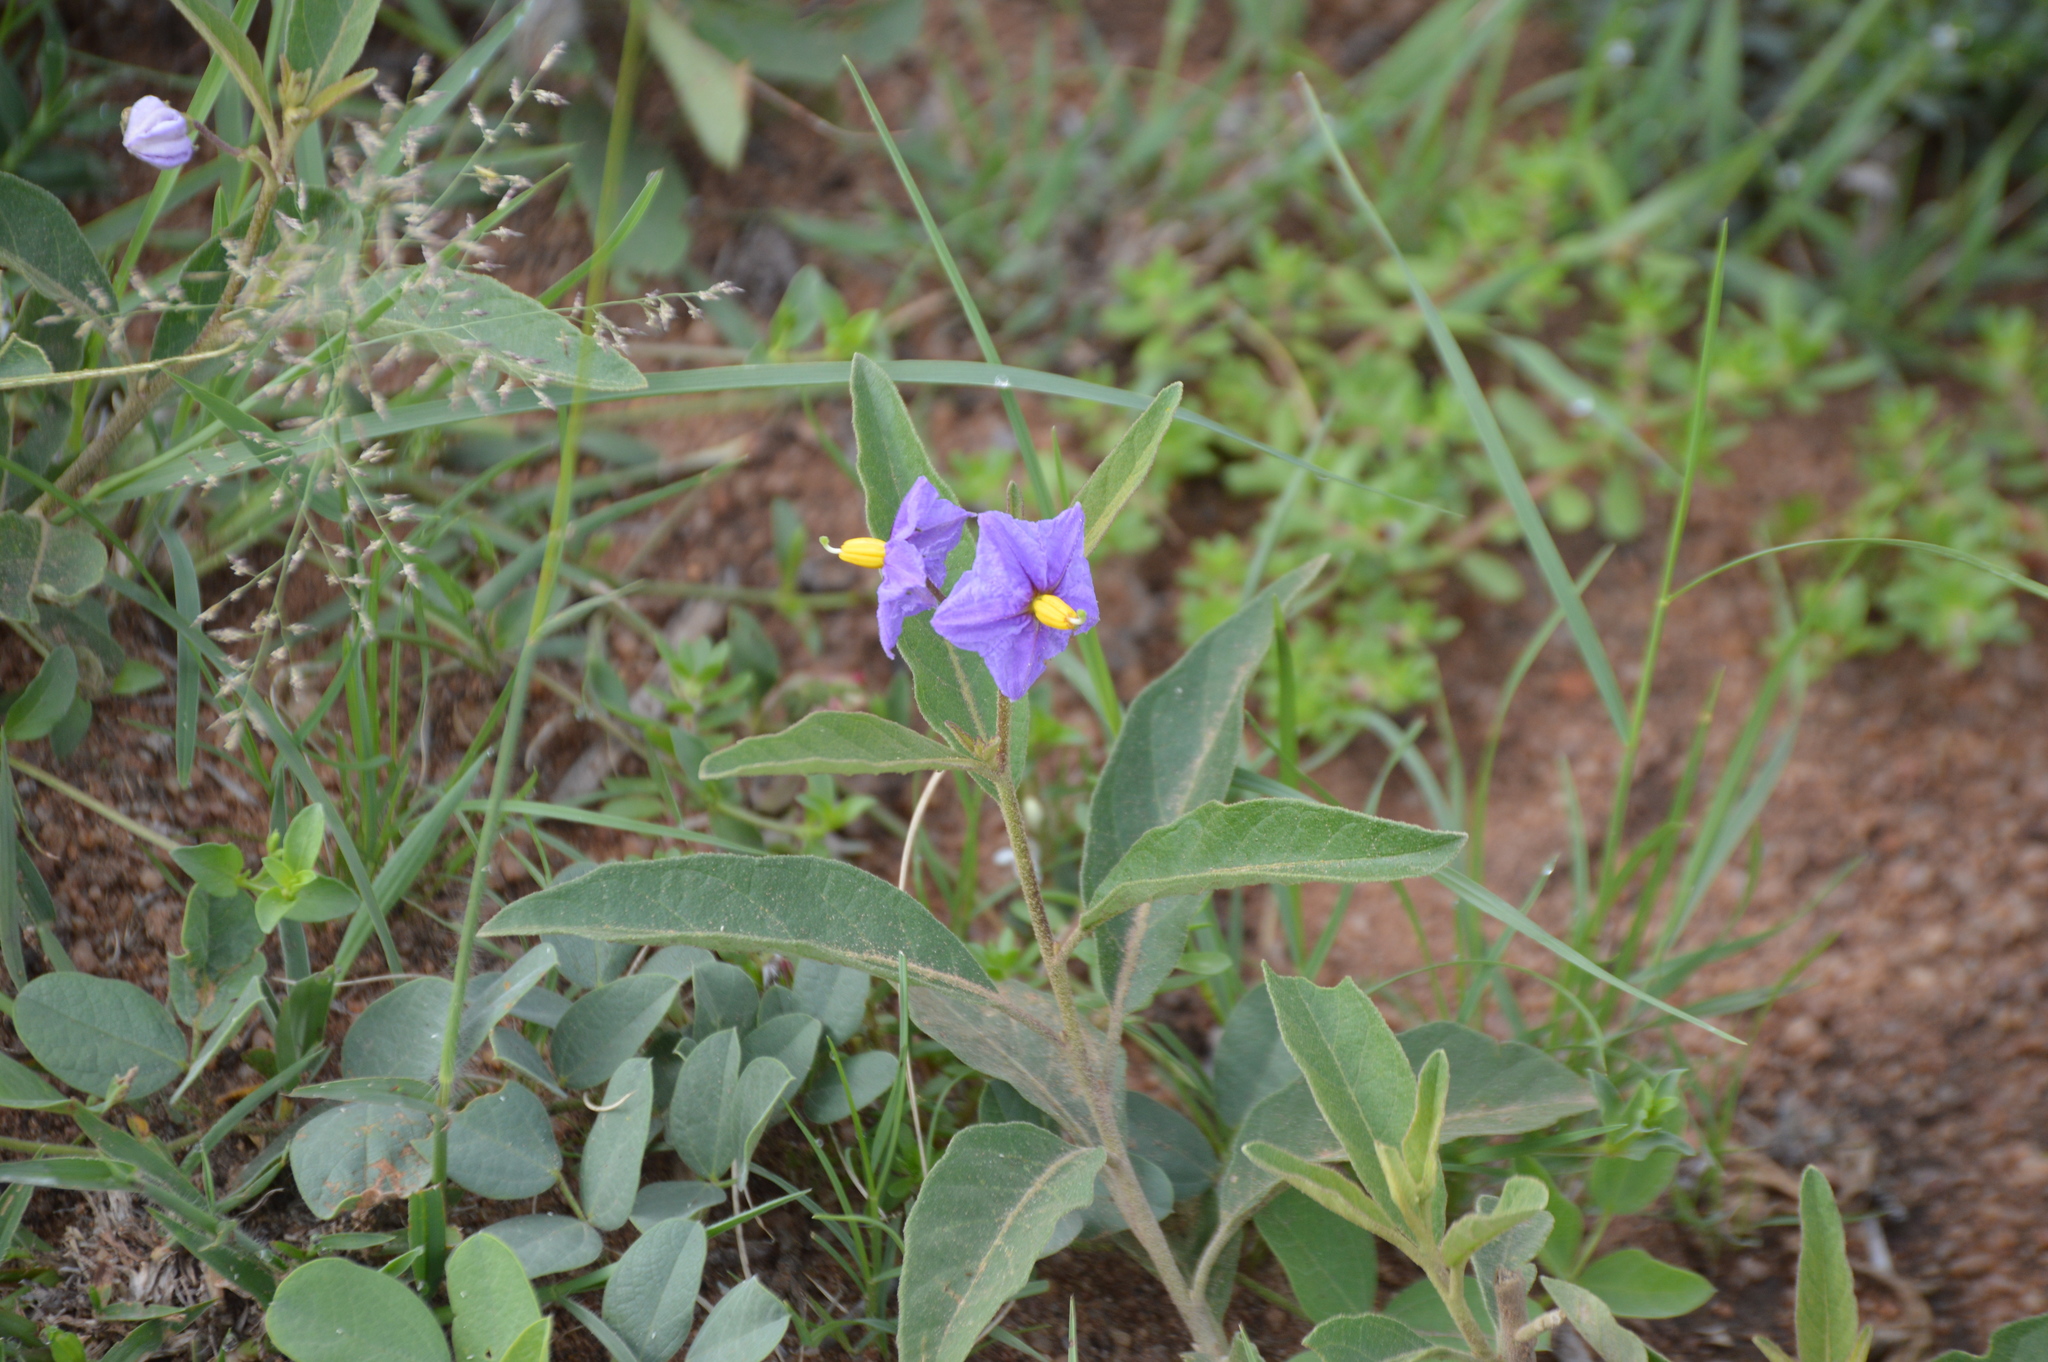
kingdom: Plantae
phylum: Tracheophyta
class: Magnoliopsida
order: Solanales
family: Solanaceae
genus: Solanum
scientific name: Solanum campylacanthum
